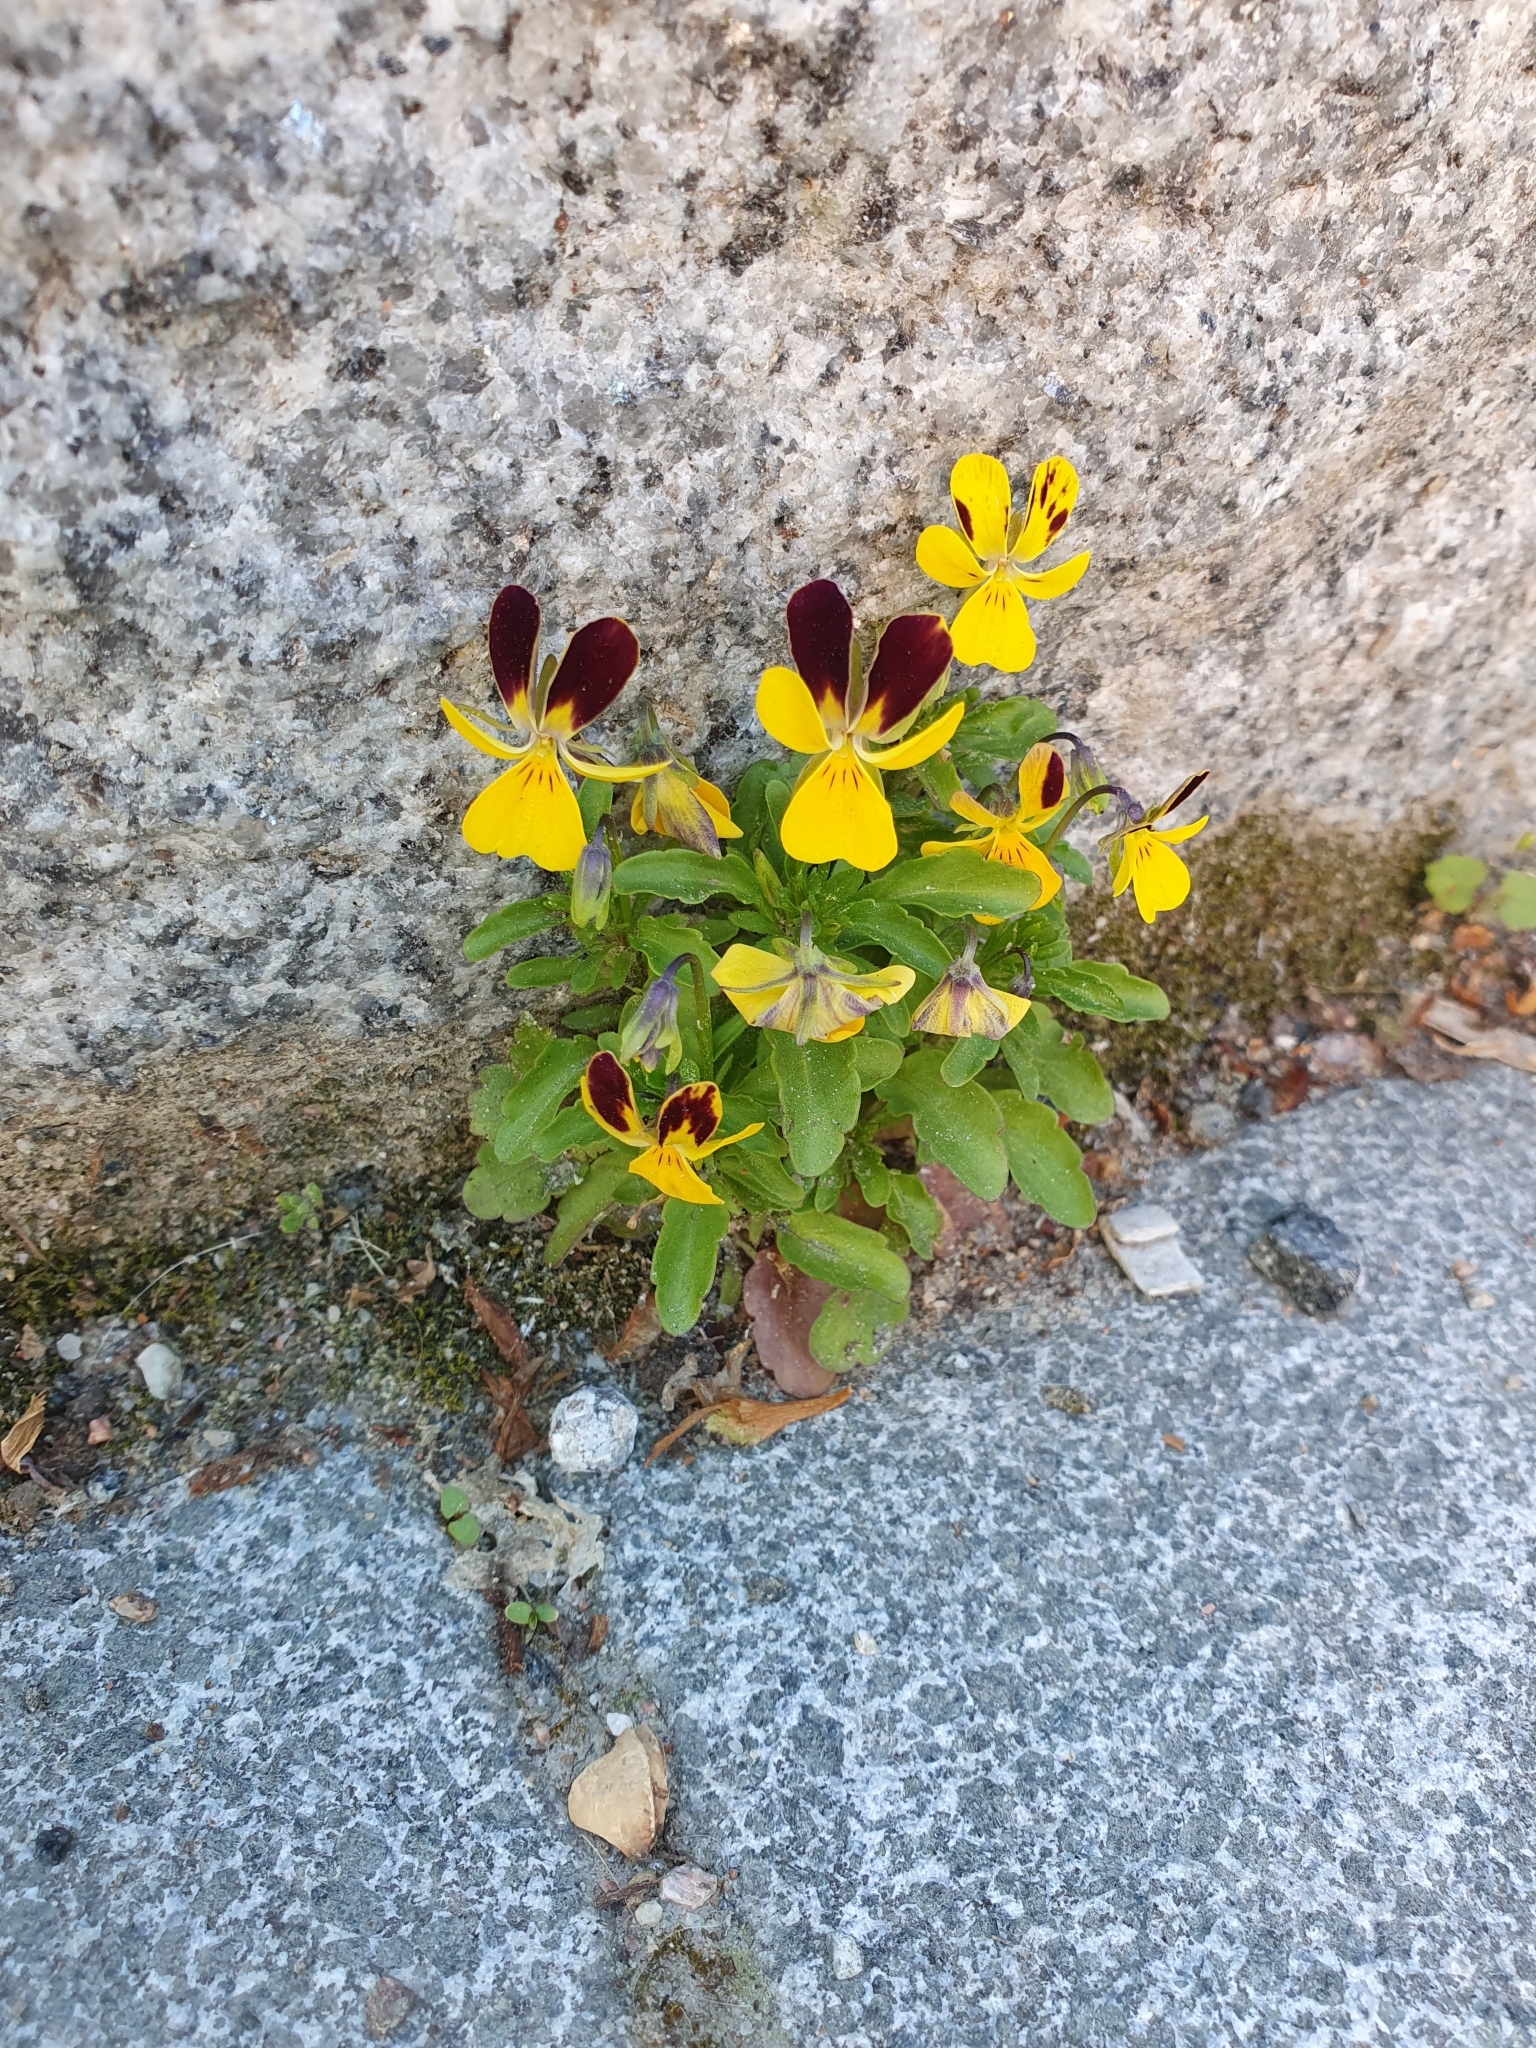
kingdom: Plantae
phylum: Tracheophyta
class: Magnoliopsida
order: Malpighiales
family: Violaceae
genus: Viola
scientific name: Viola wittrockiana
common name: Garden pansy
